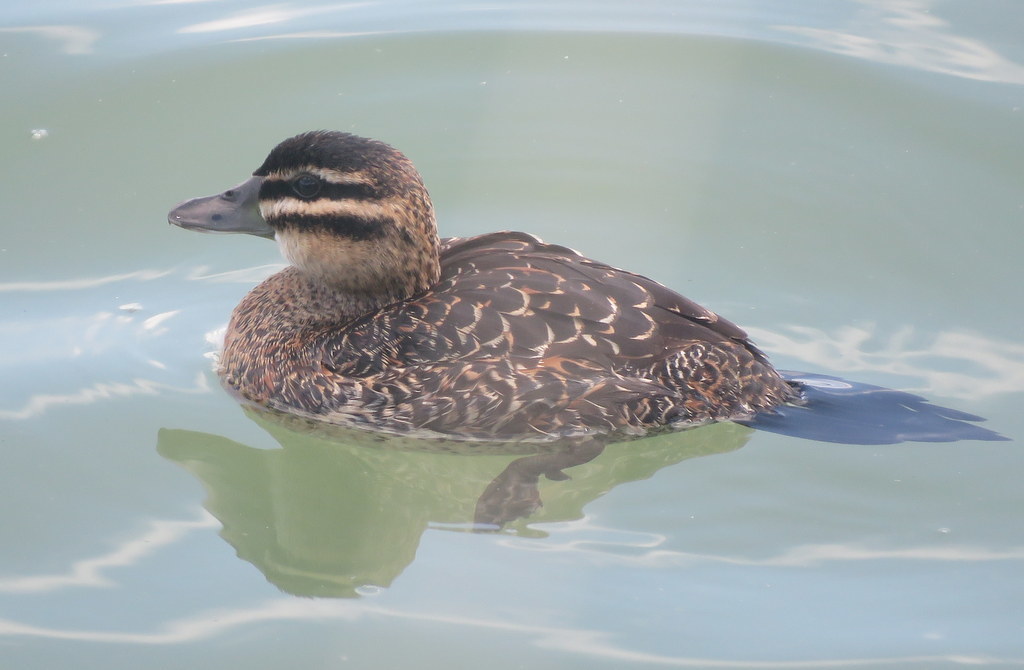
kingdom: Animalia
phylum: Chordata
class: Aves
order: Anseriformes
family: Anatidae
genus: Nomonyx
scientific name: Nomonyx dominicus
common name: Masked duck
